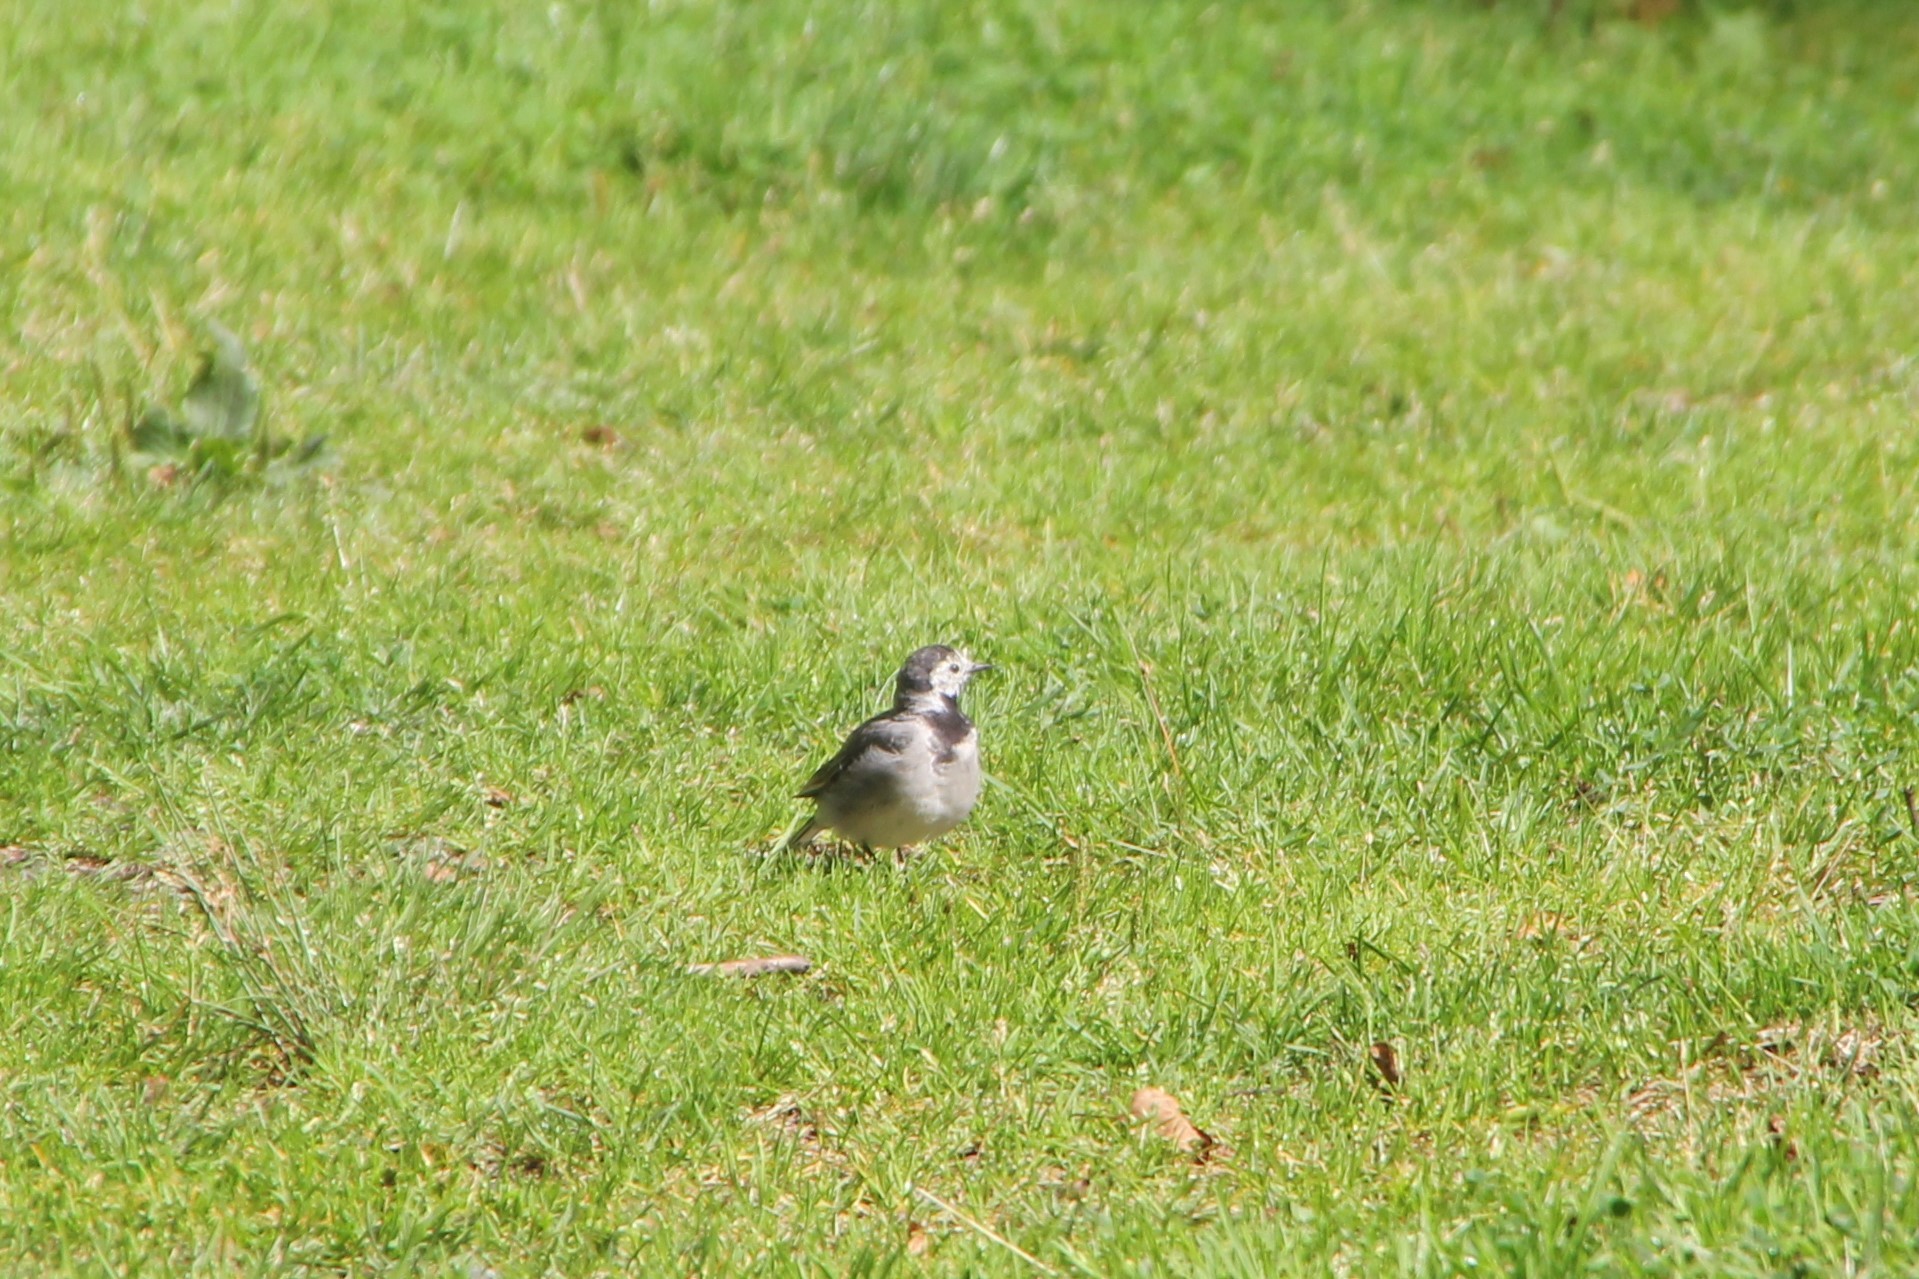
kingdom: Animalia
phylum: Chordata
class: Aves
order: Passeriformes
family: Motacillidae
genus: Motacilla
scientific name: Motacilla alba
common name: White wagtail
